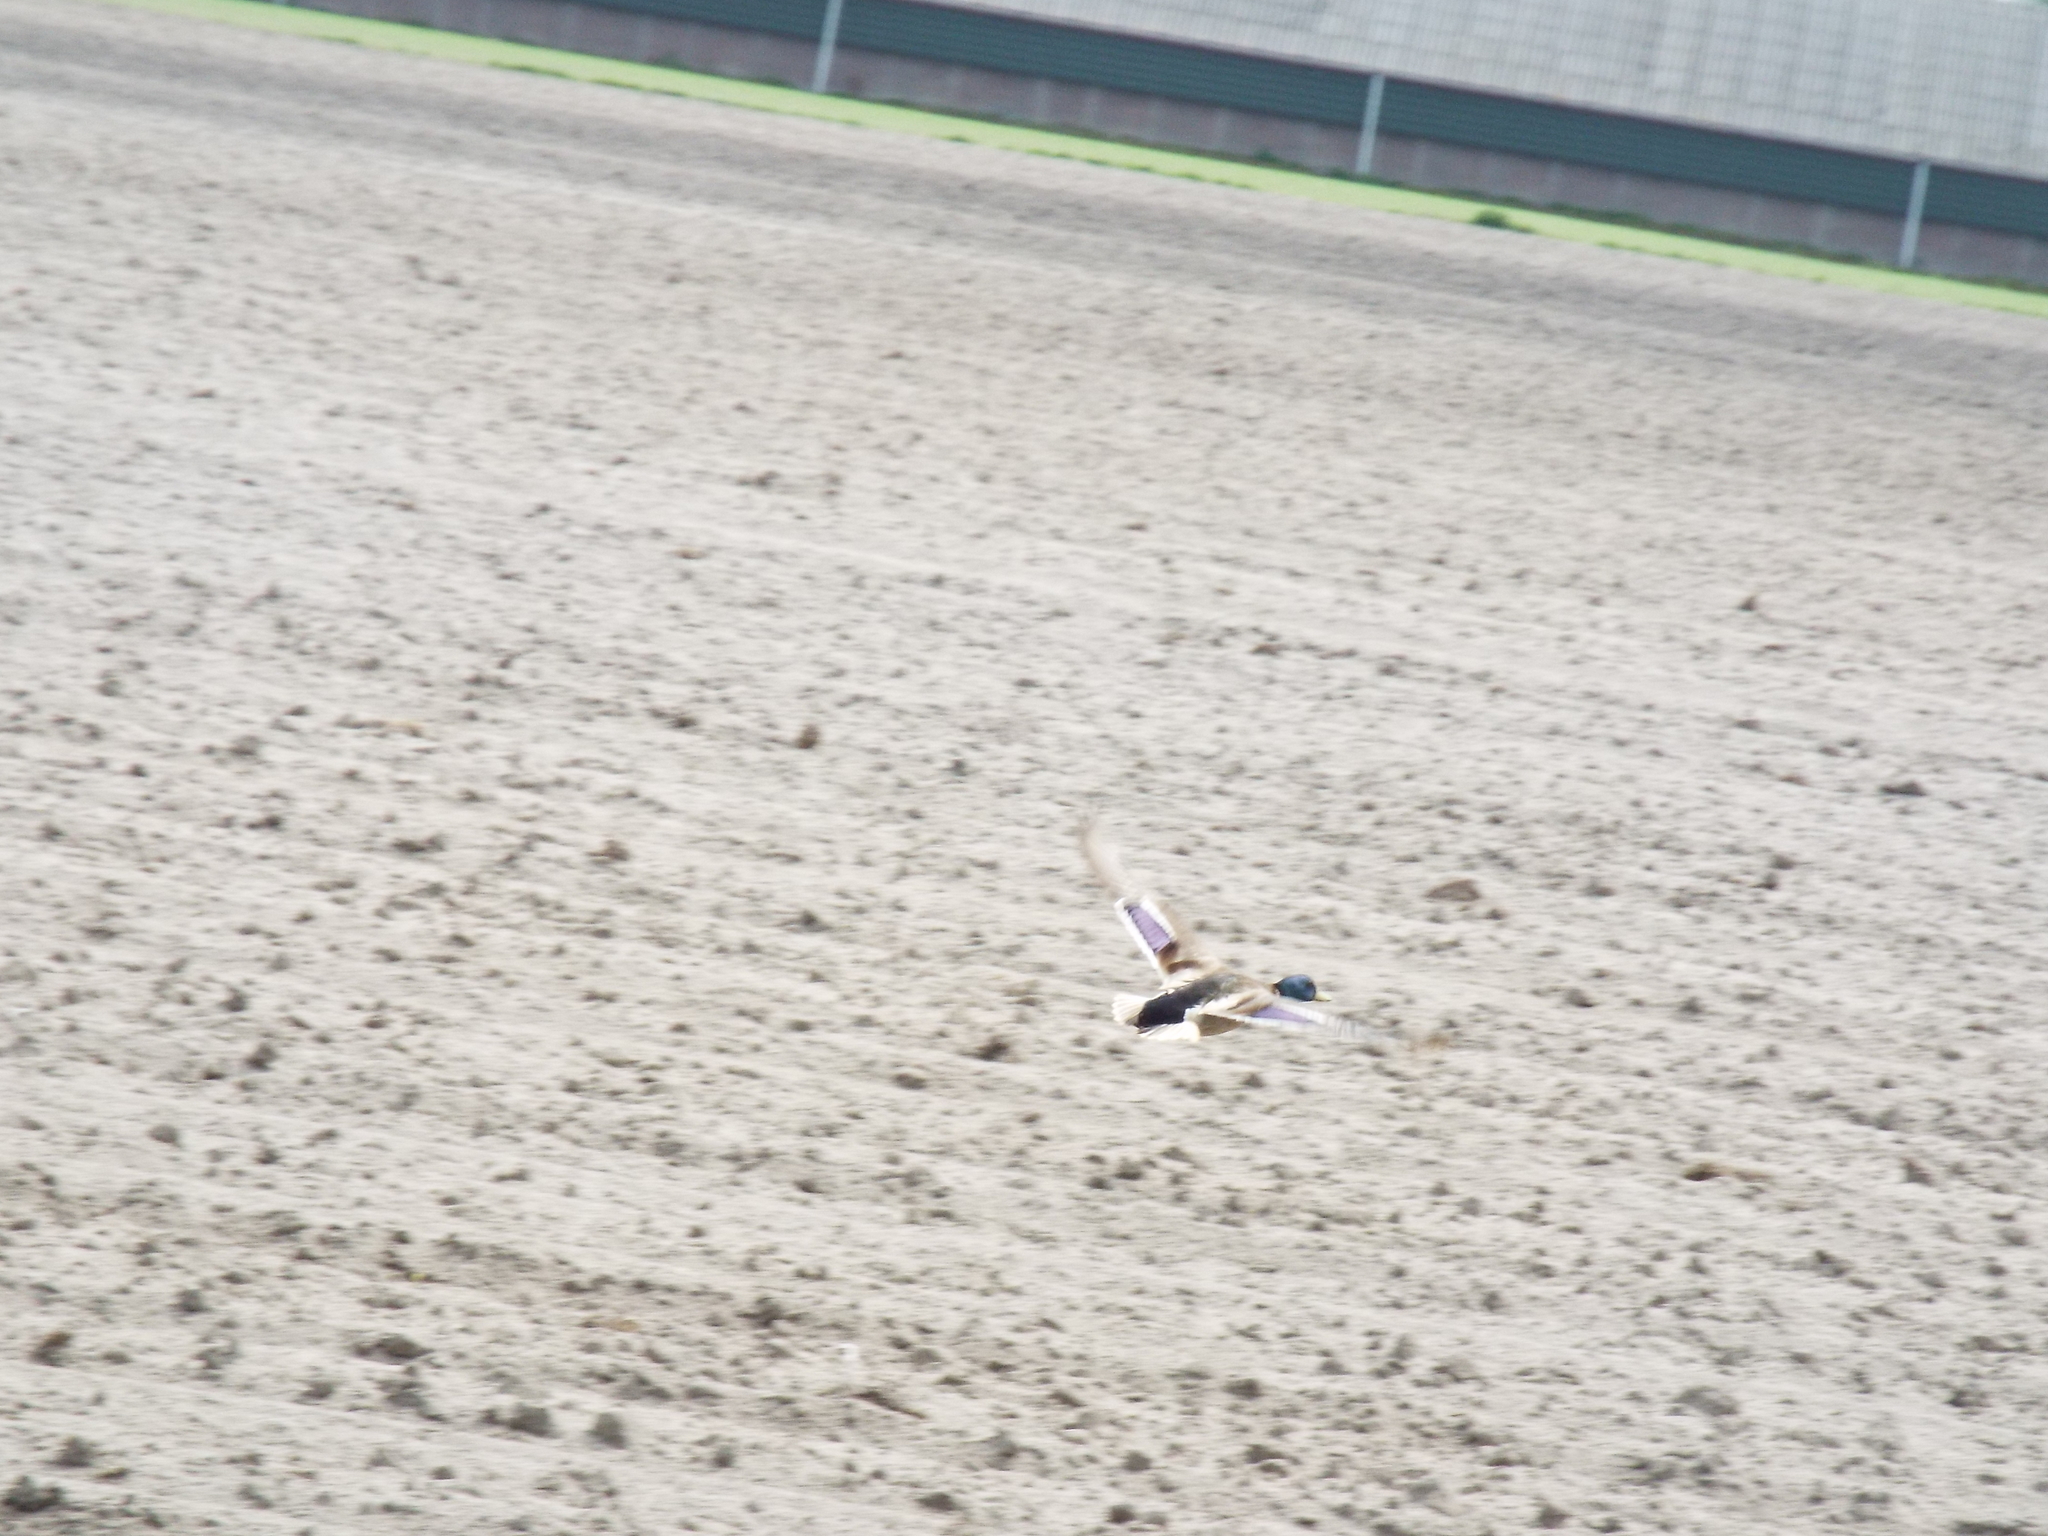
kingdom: Animalia
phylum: Chordata
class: Aves
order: Anseriformes
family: Anatidae
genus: Anas
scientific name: Anas platyrhynchos
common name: Mallard
